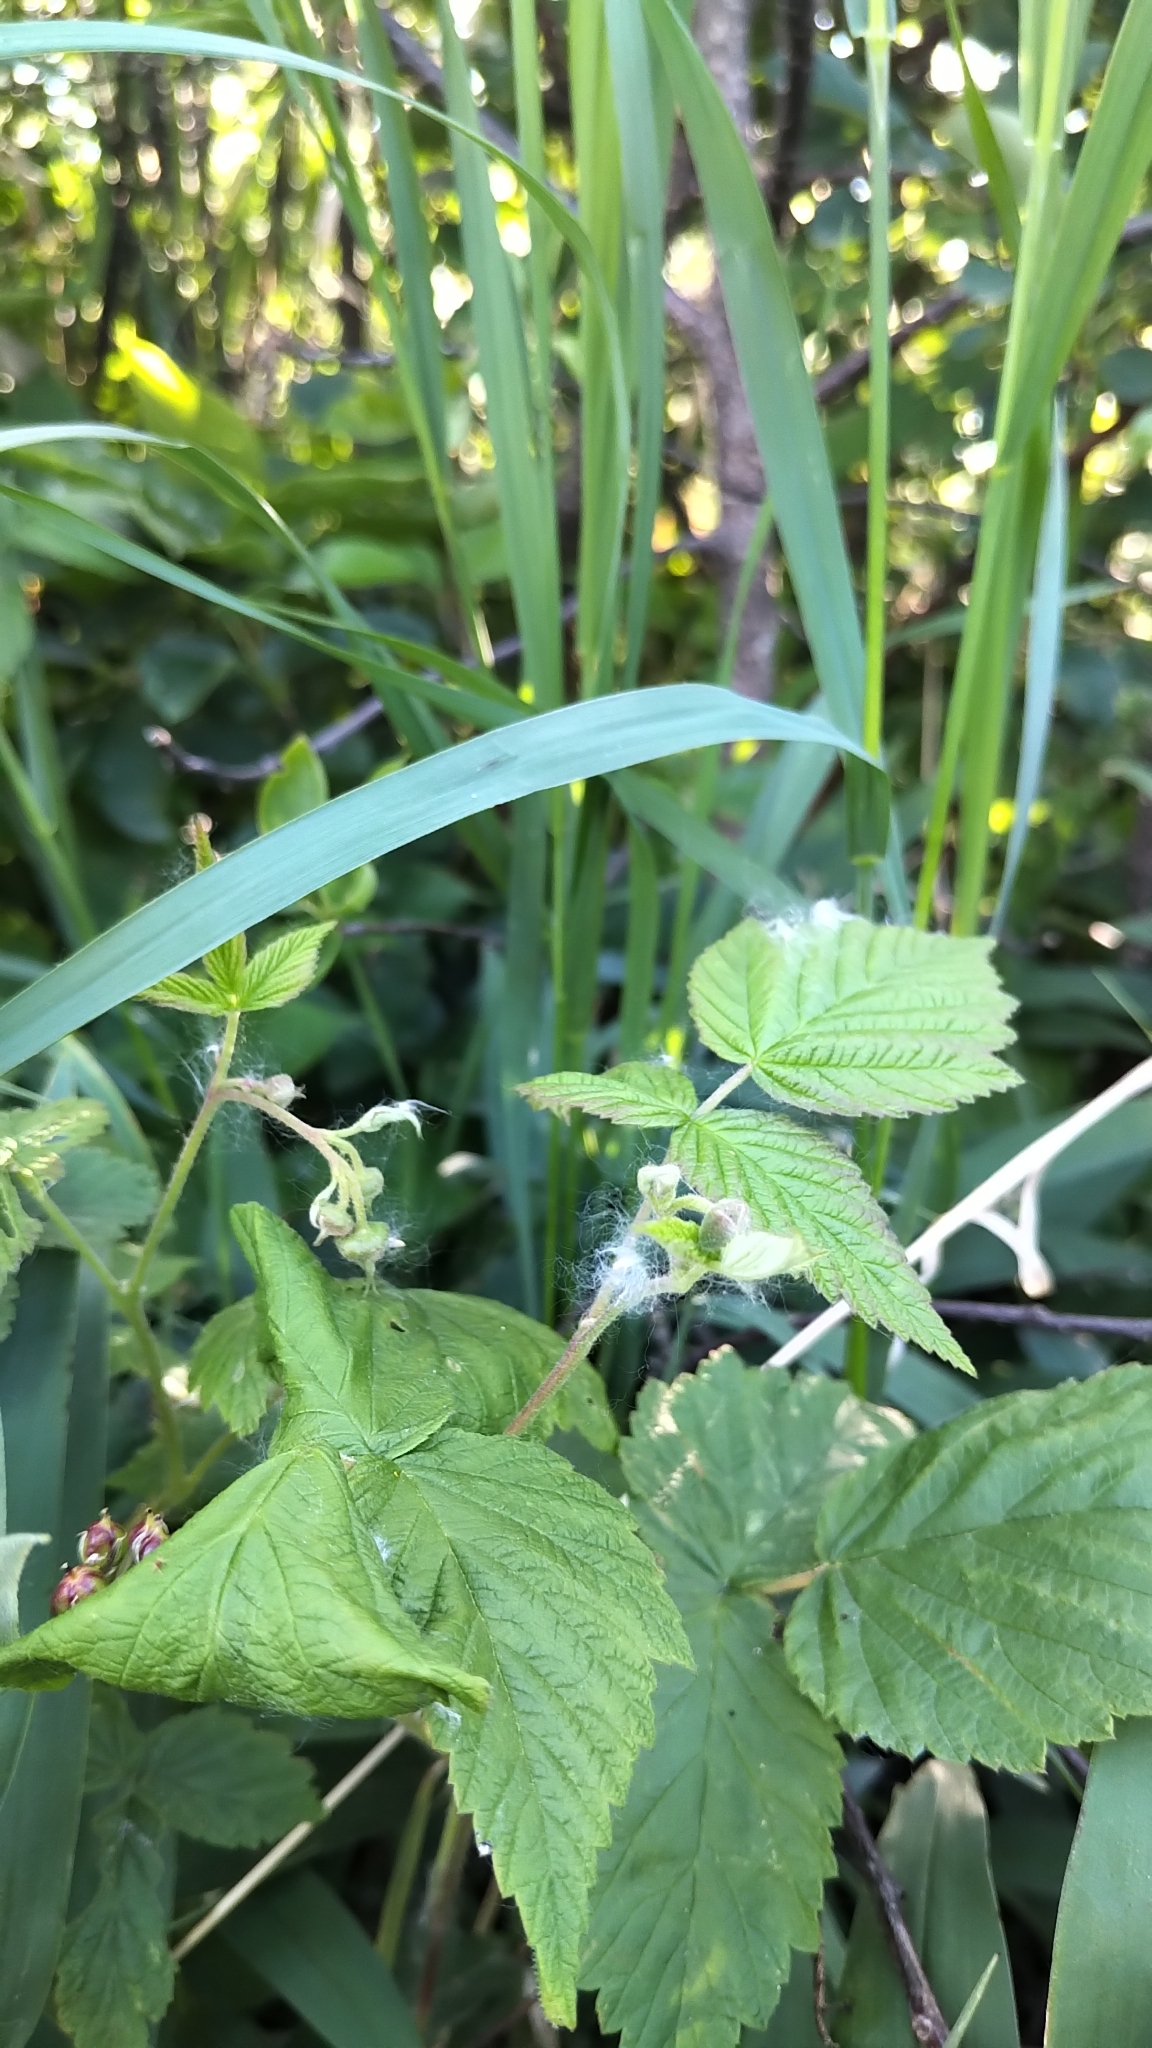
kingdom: Plantae
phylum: Tracheophyta
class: Magnoliopsida
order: Rosales
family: Rosaceae
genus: Rubus
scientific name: Rubus idaeus
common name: Raspberry
